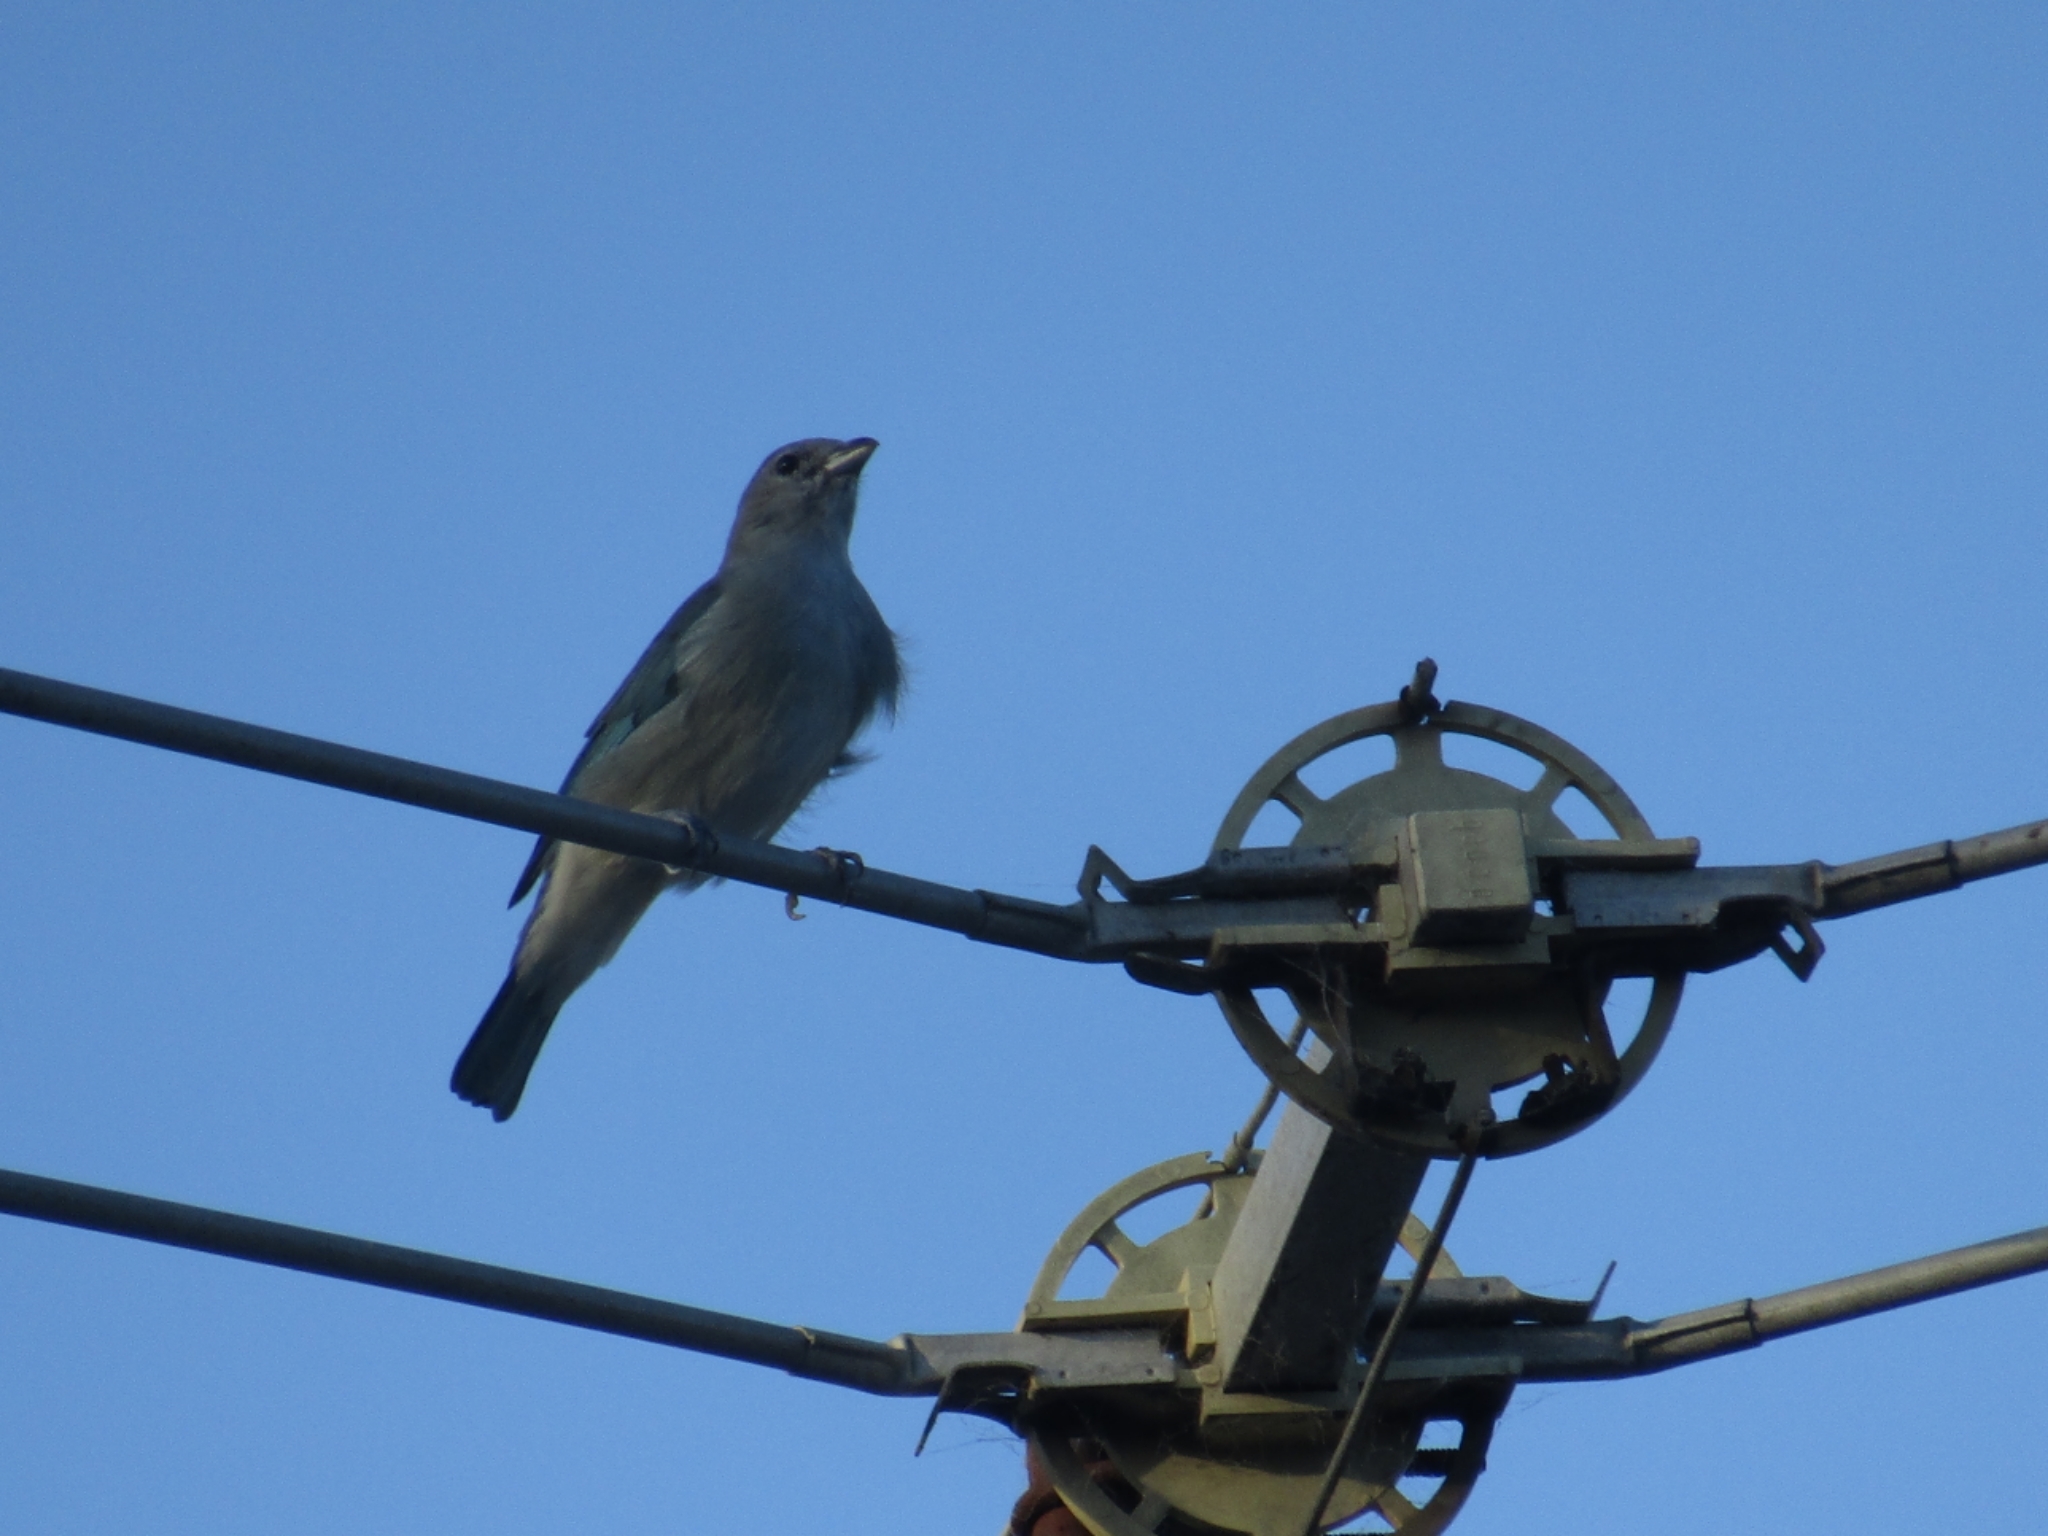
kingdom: Animalia
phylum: Chordata
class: Aves
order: Passeriformes
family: Thraupidae
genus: Thraupis
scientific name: Thraupis sayaca
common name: Sayaca tanager
